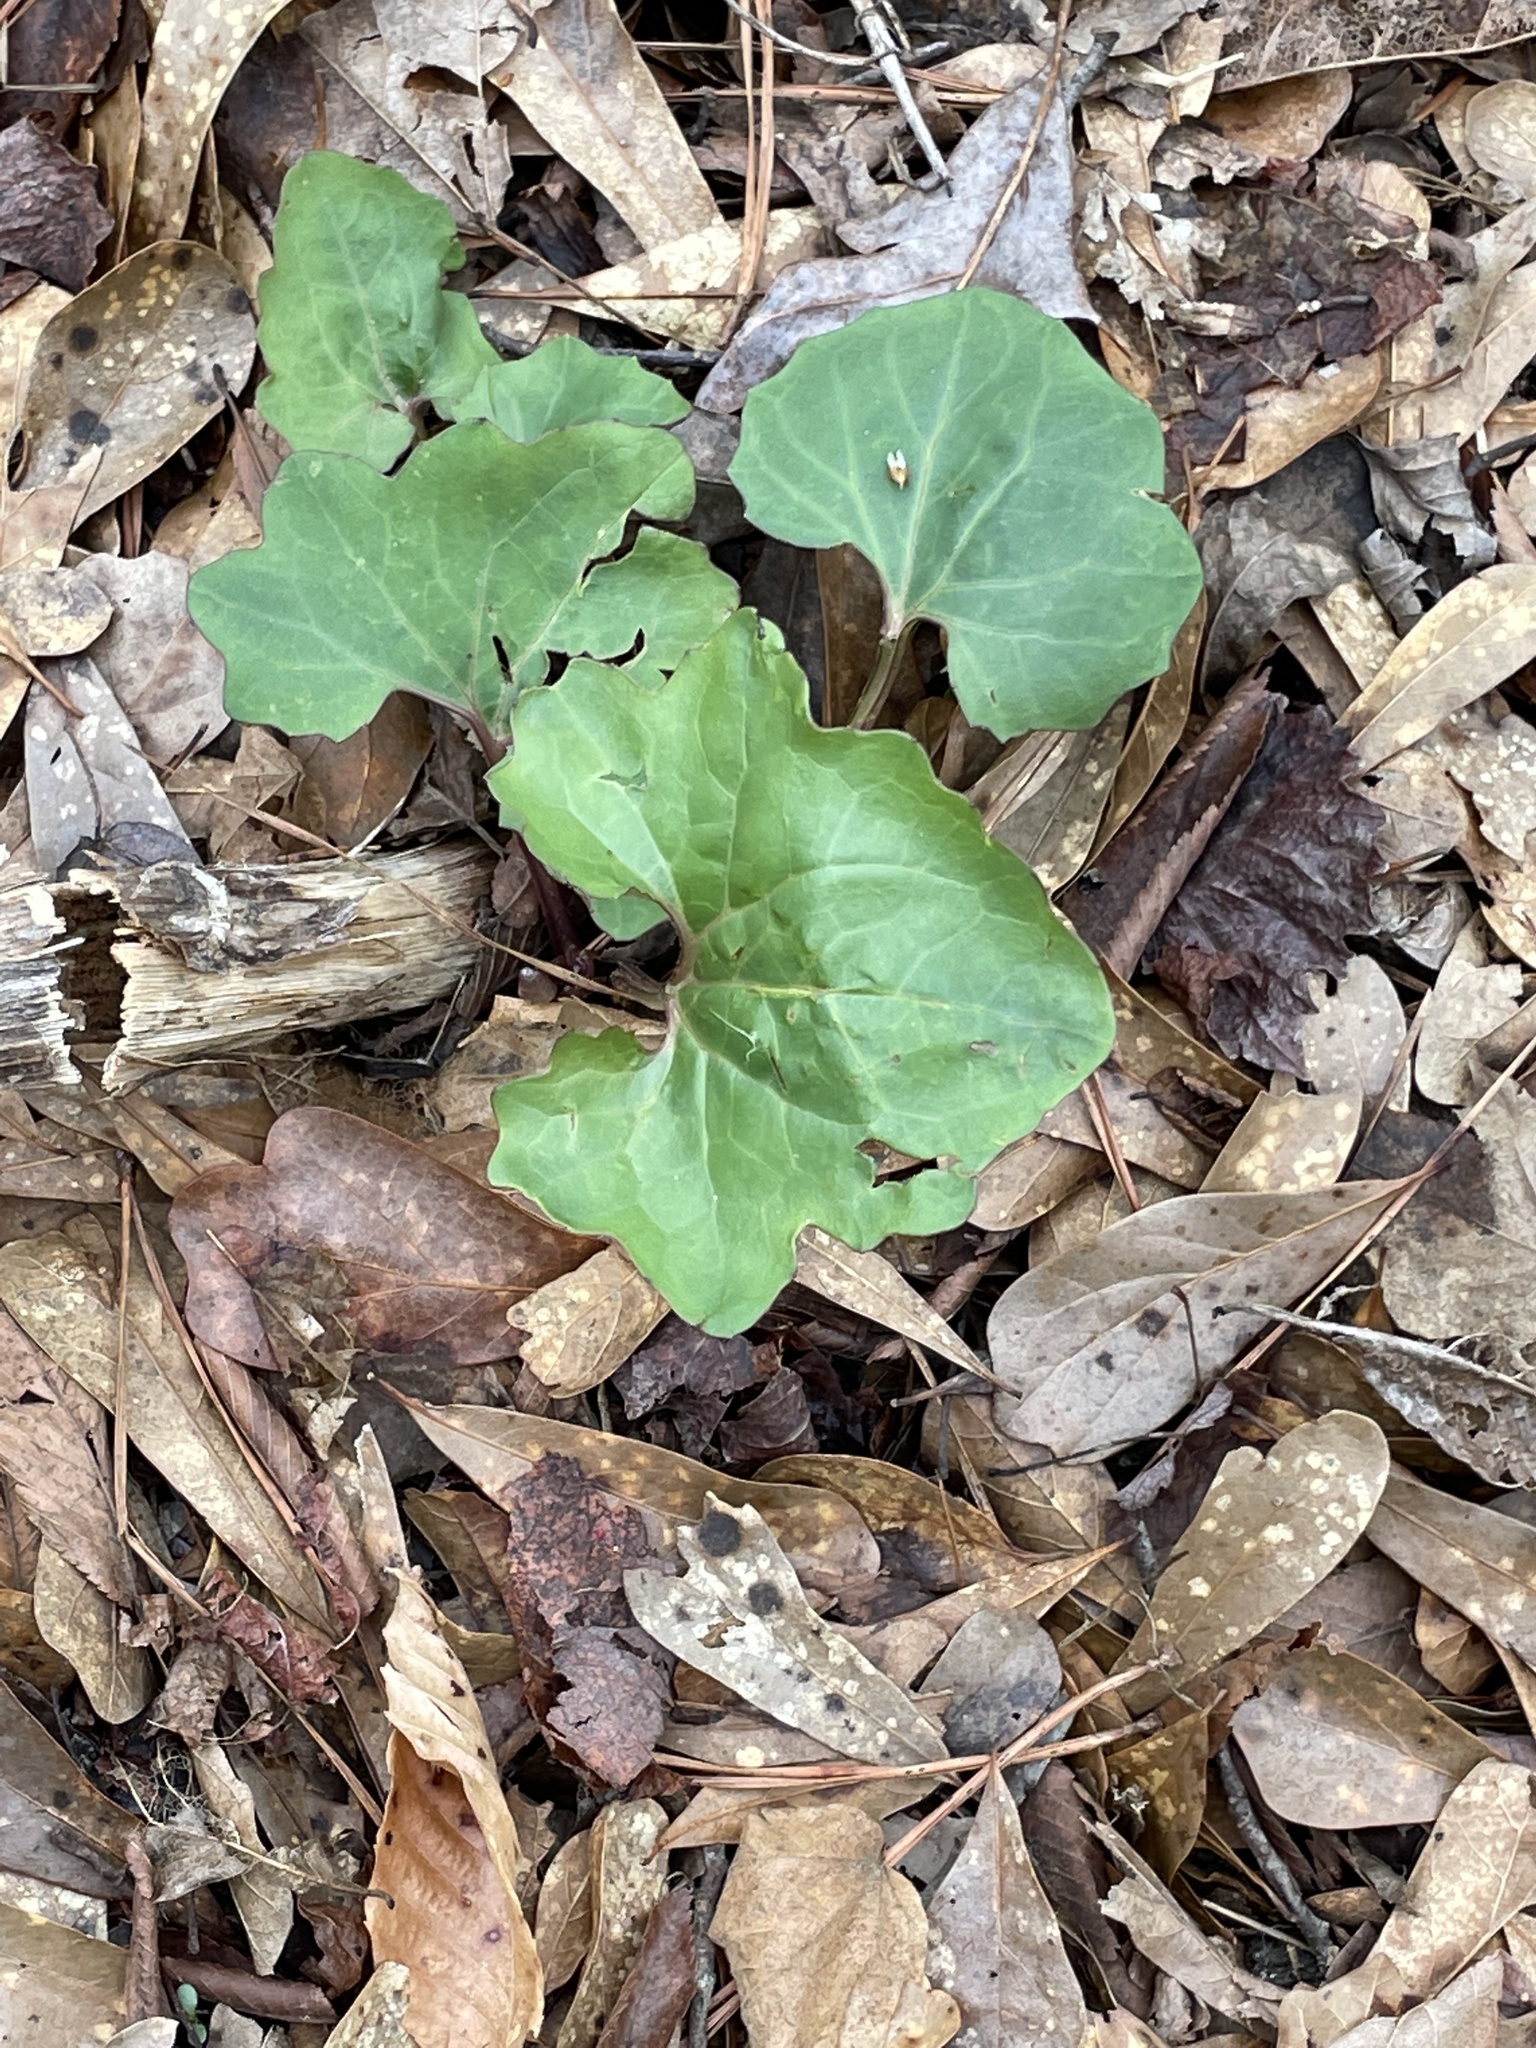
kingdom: Plantae
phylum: Tracheophyta
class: Magnoliopsida
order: Asterales
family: Asteraceae
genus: Arnoglossum
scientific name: Arnoglossum atriplicifolium
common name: Pale indian-plantain
